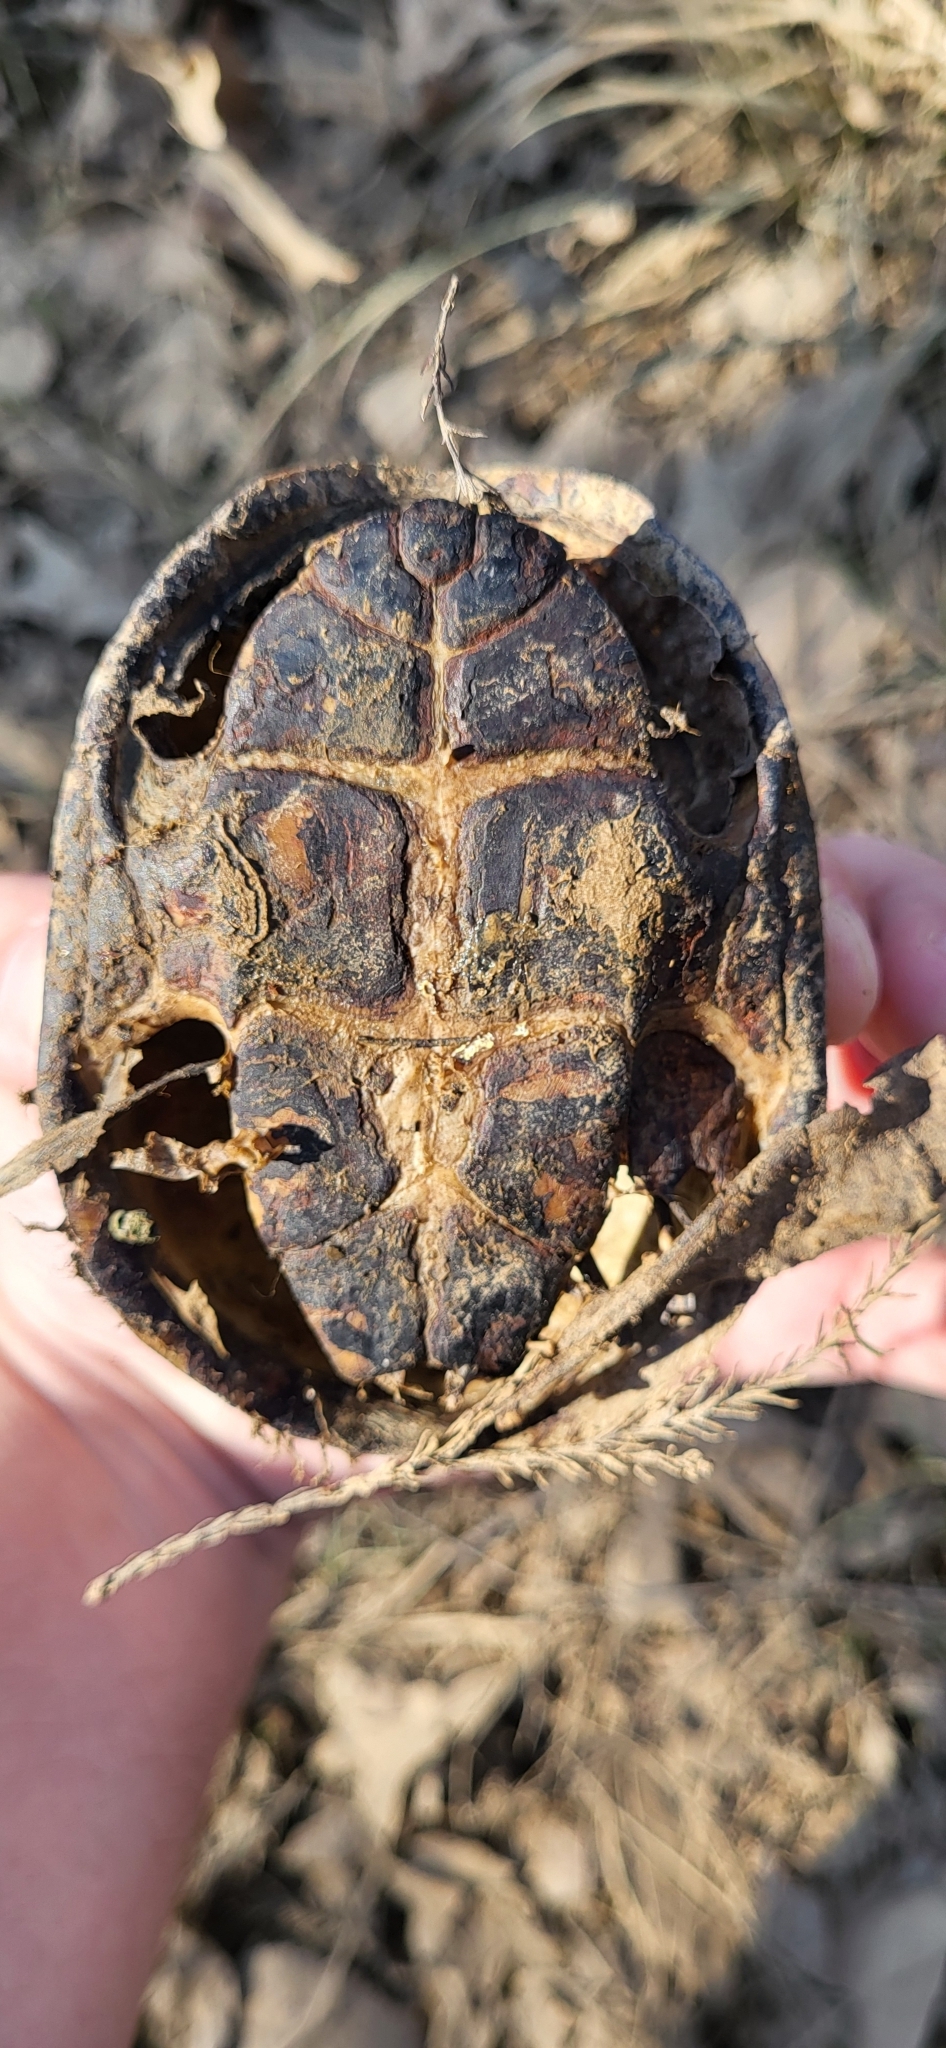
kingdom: Animalia
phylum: Chordata
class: Testudines
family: Kinosternidae
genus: Sternotherus
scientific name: Sternotherus odoratus
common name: Common musk turtle
